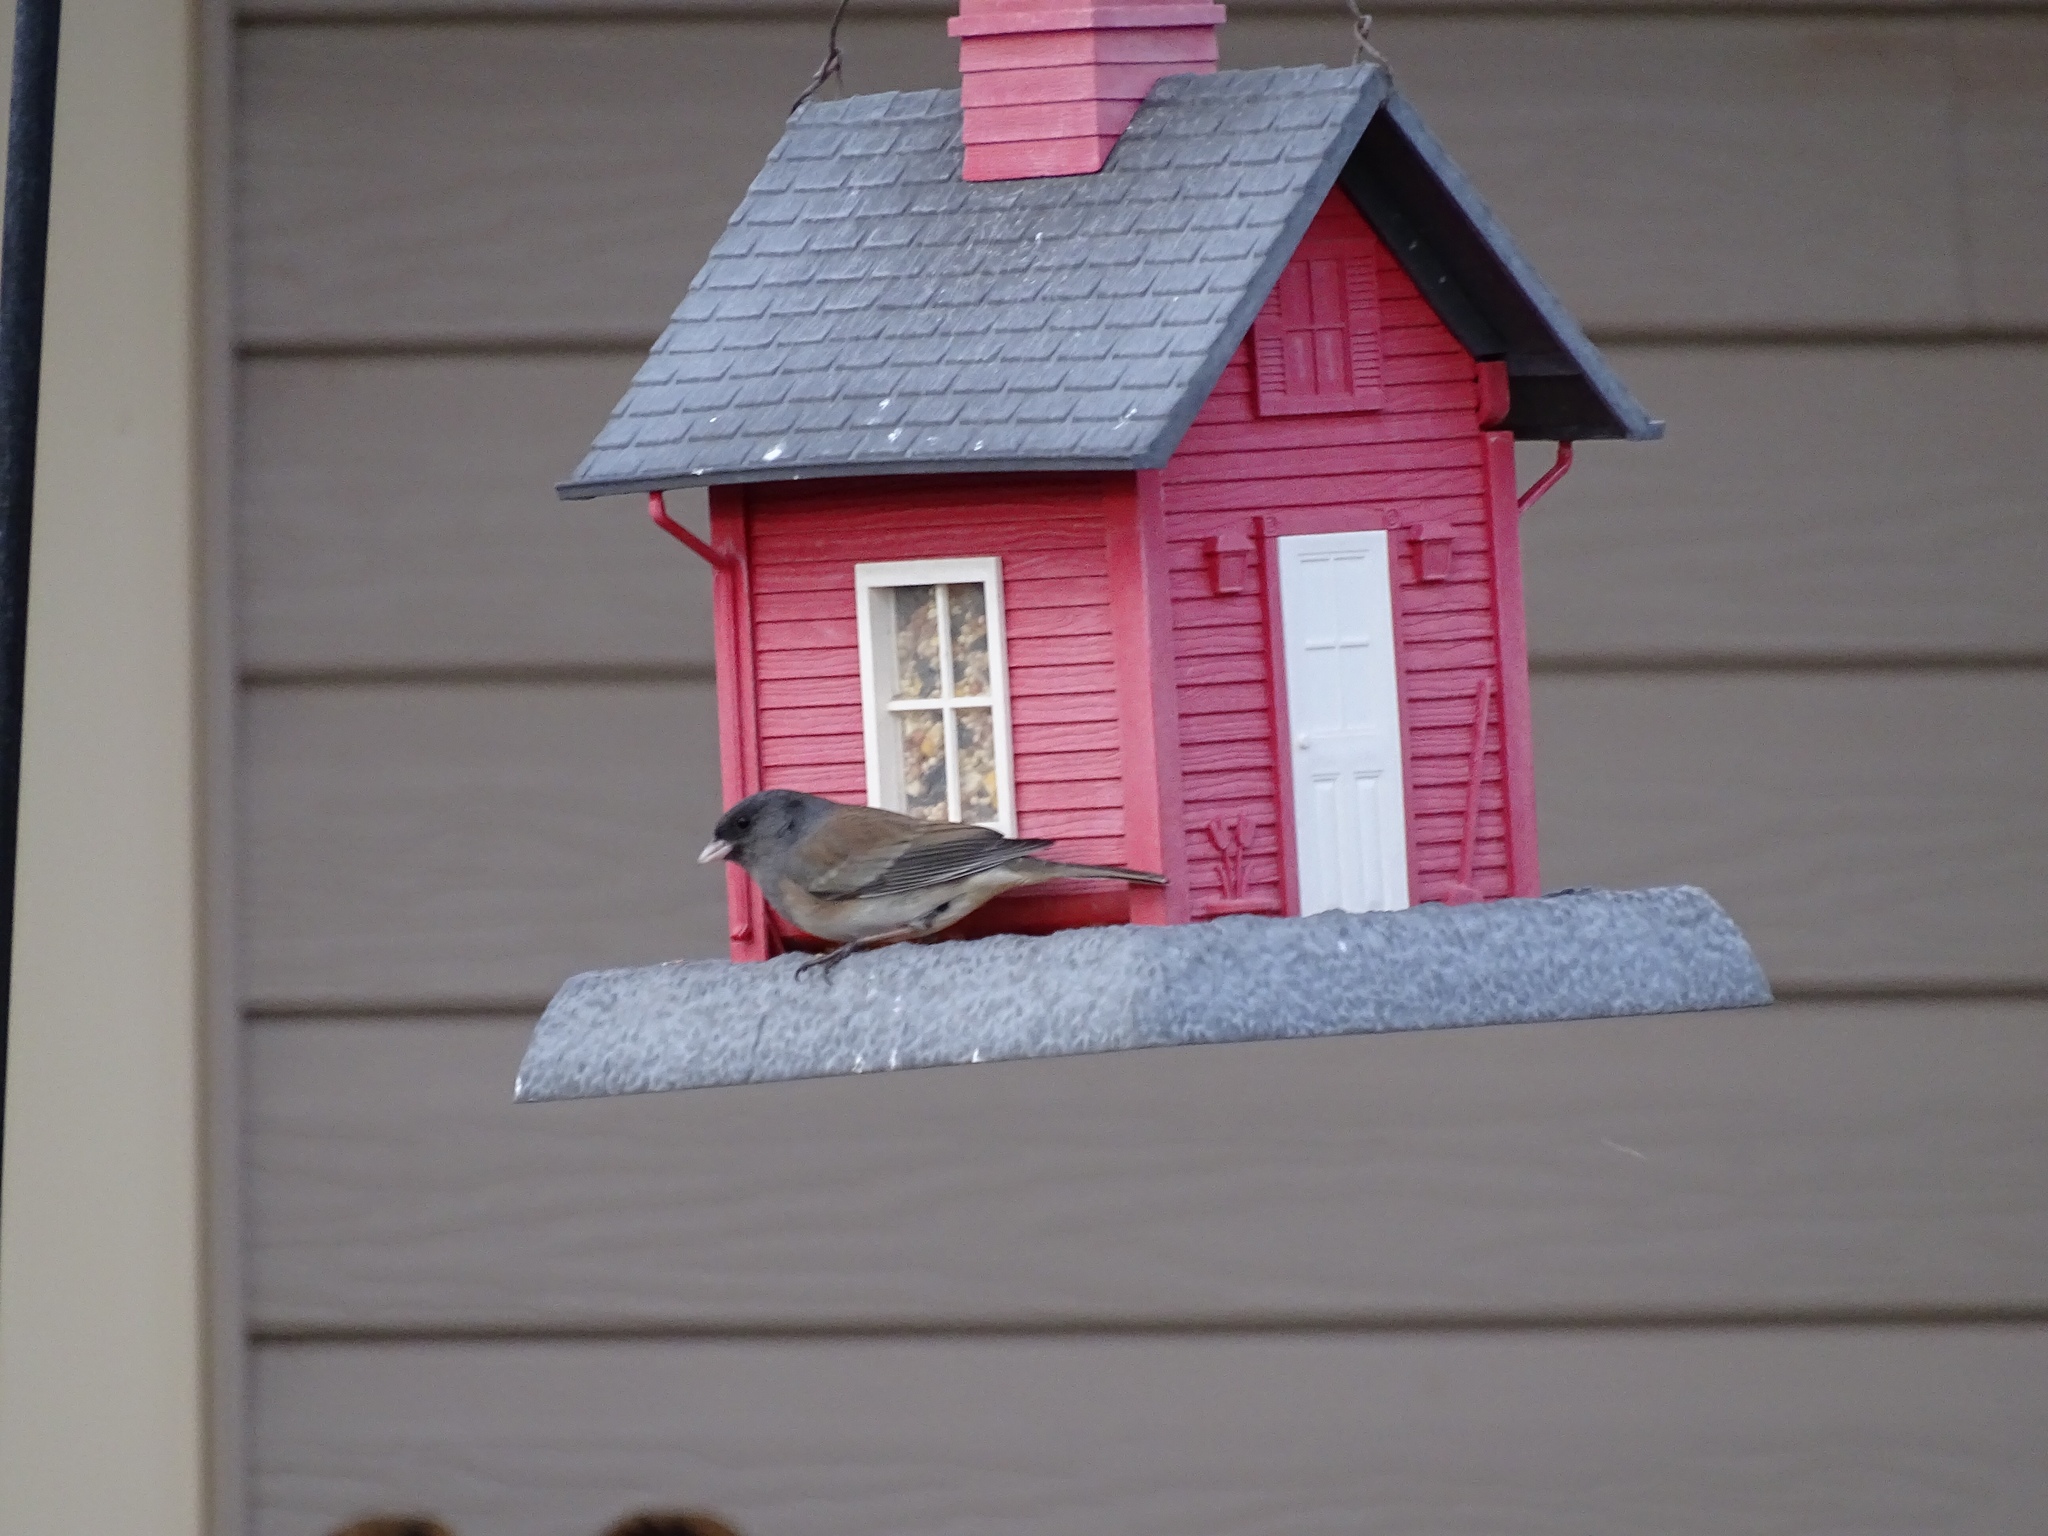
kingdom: Animalia
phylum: Chordata
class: Aves
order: Passeriformes
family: Passerellidae
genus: Junco
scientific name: Junco hyemalis
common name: Dark-eyed junco
